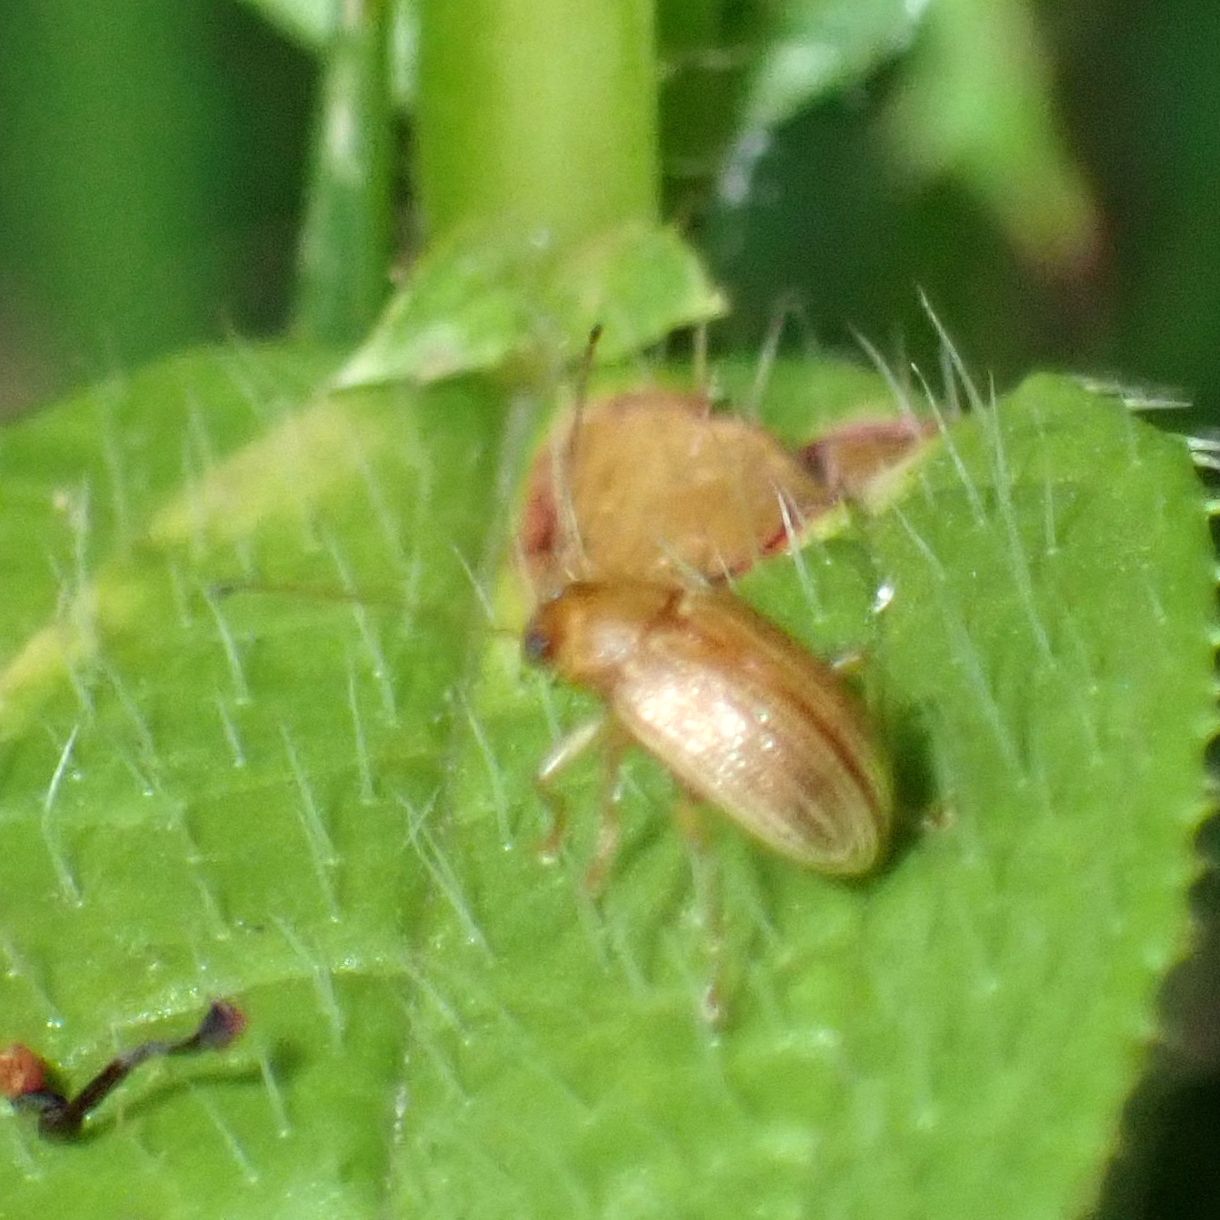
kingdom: Animalia
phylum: Arthropoda
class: Insecta
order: Coleoptera
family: Chrysomelidae
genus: Colaspis
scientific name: Colaspis brunnea
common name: Grape colaspis
